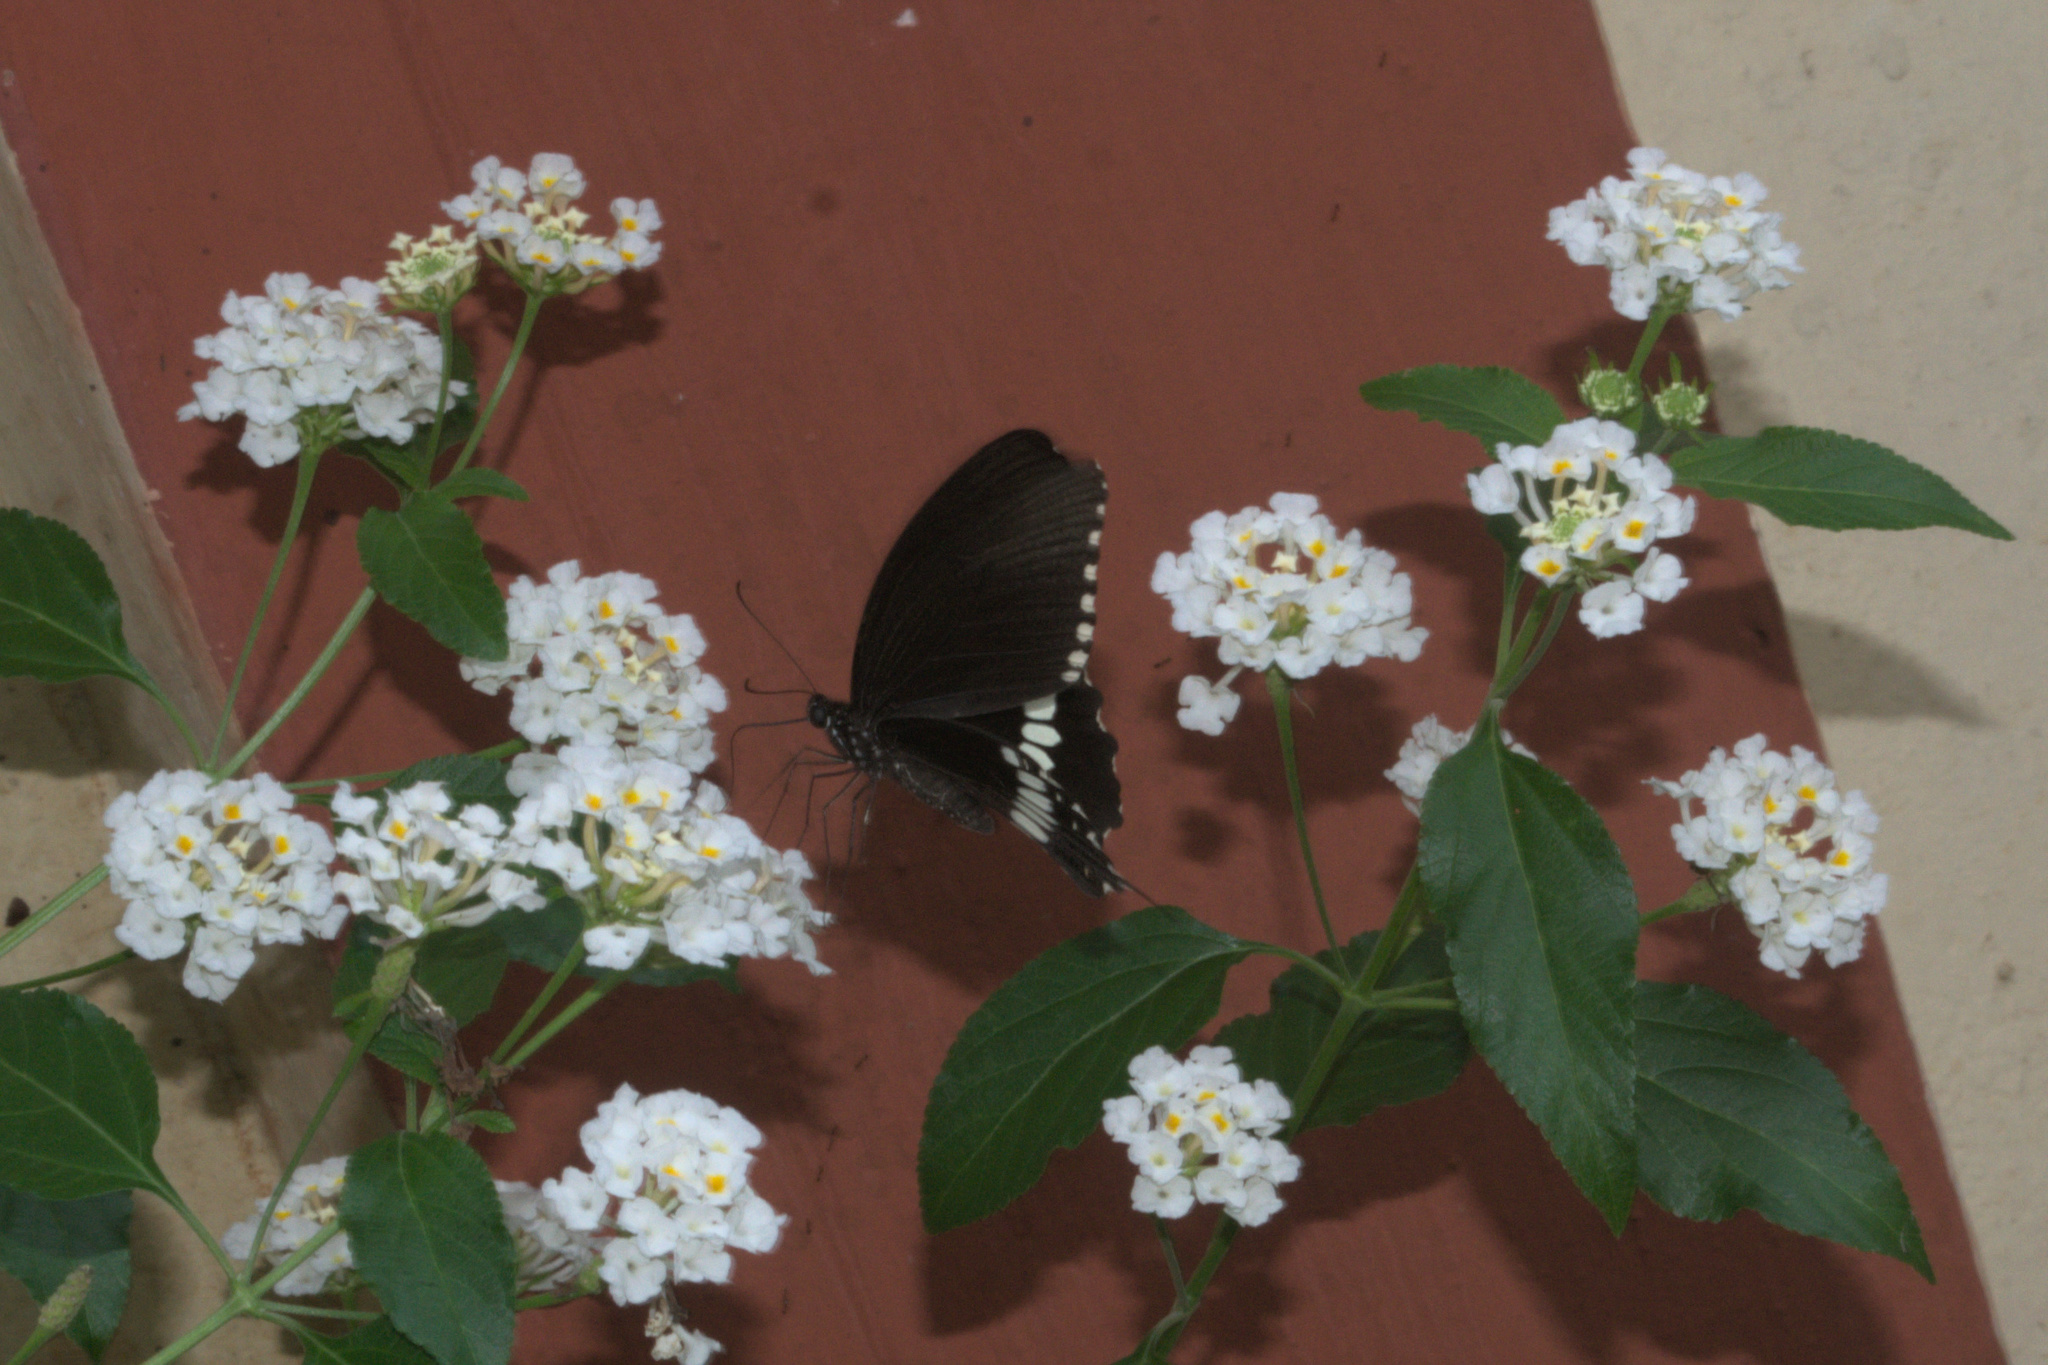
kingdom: Animalia
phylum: Arthropoda
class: Insecta
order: Lepidoptera
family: Papilionidae
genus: Papilio
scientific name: Papilio polytes
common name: Common mormon
